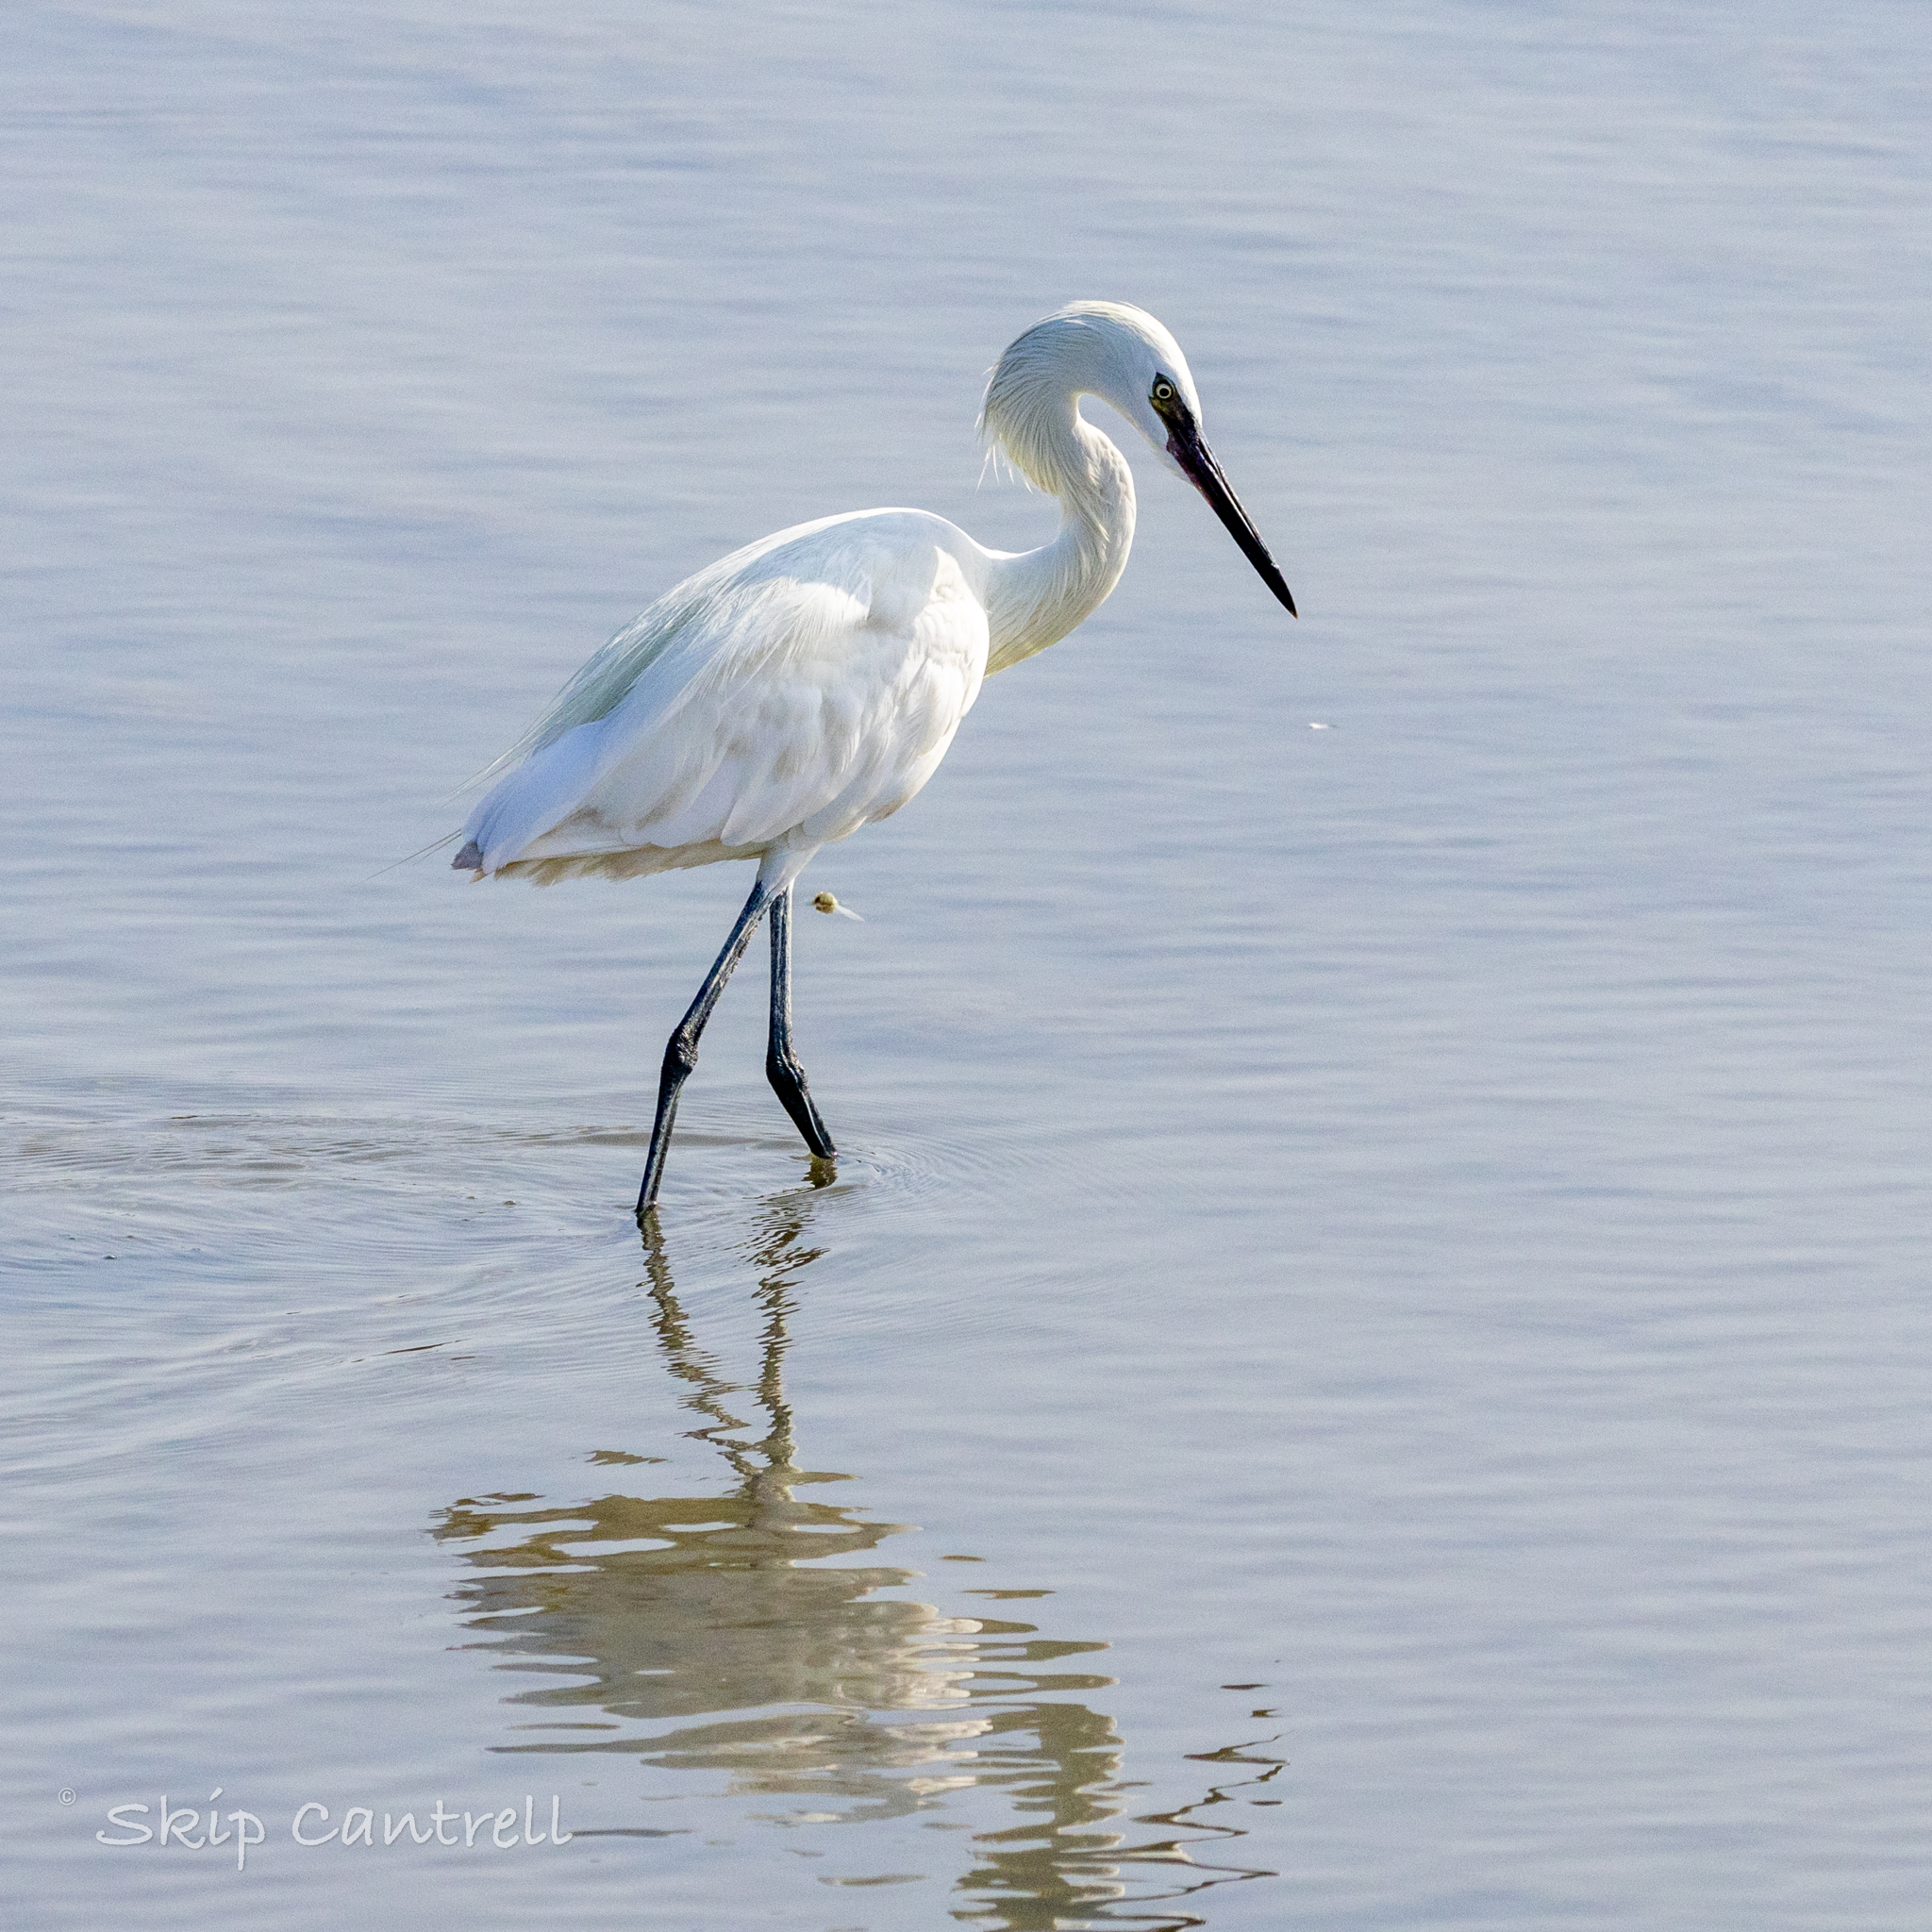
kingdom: Animalia
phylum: Chordata
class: Aves
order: Pelecaniformes
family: Ardeidae
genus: Egretta
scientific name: Egretta rufescens
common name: Reddish egret
